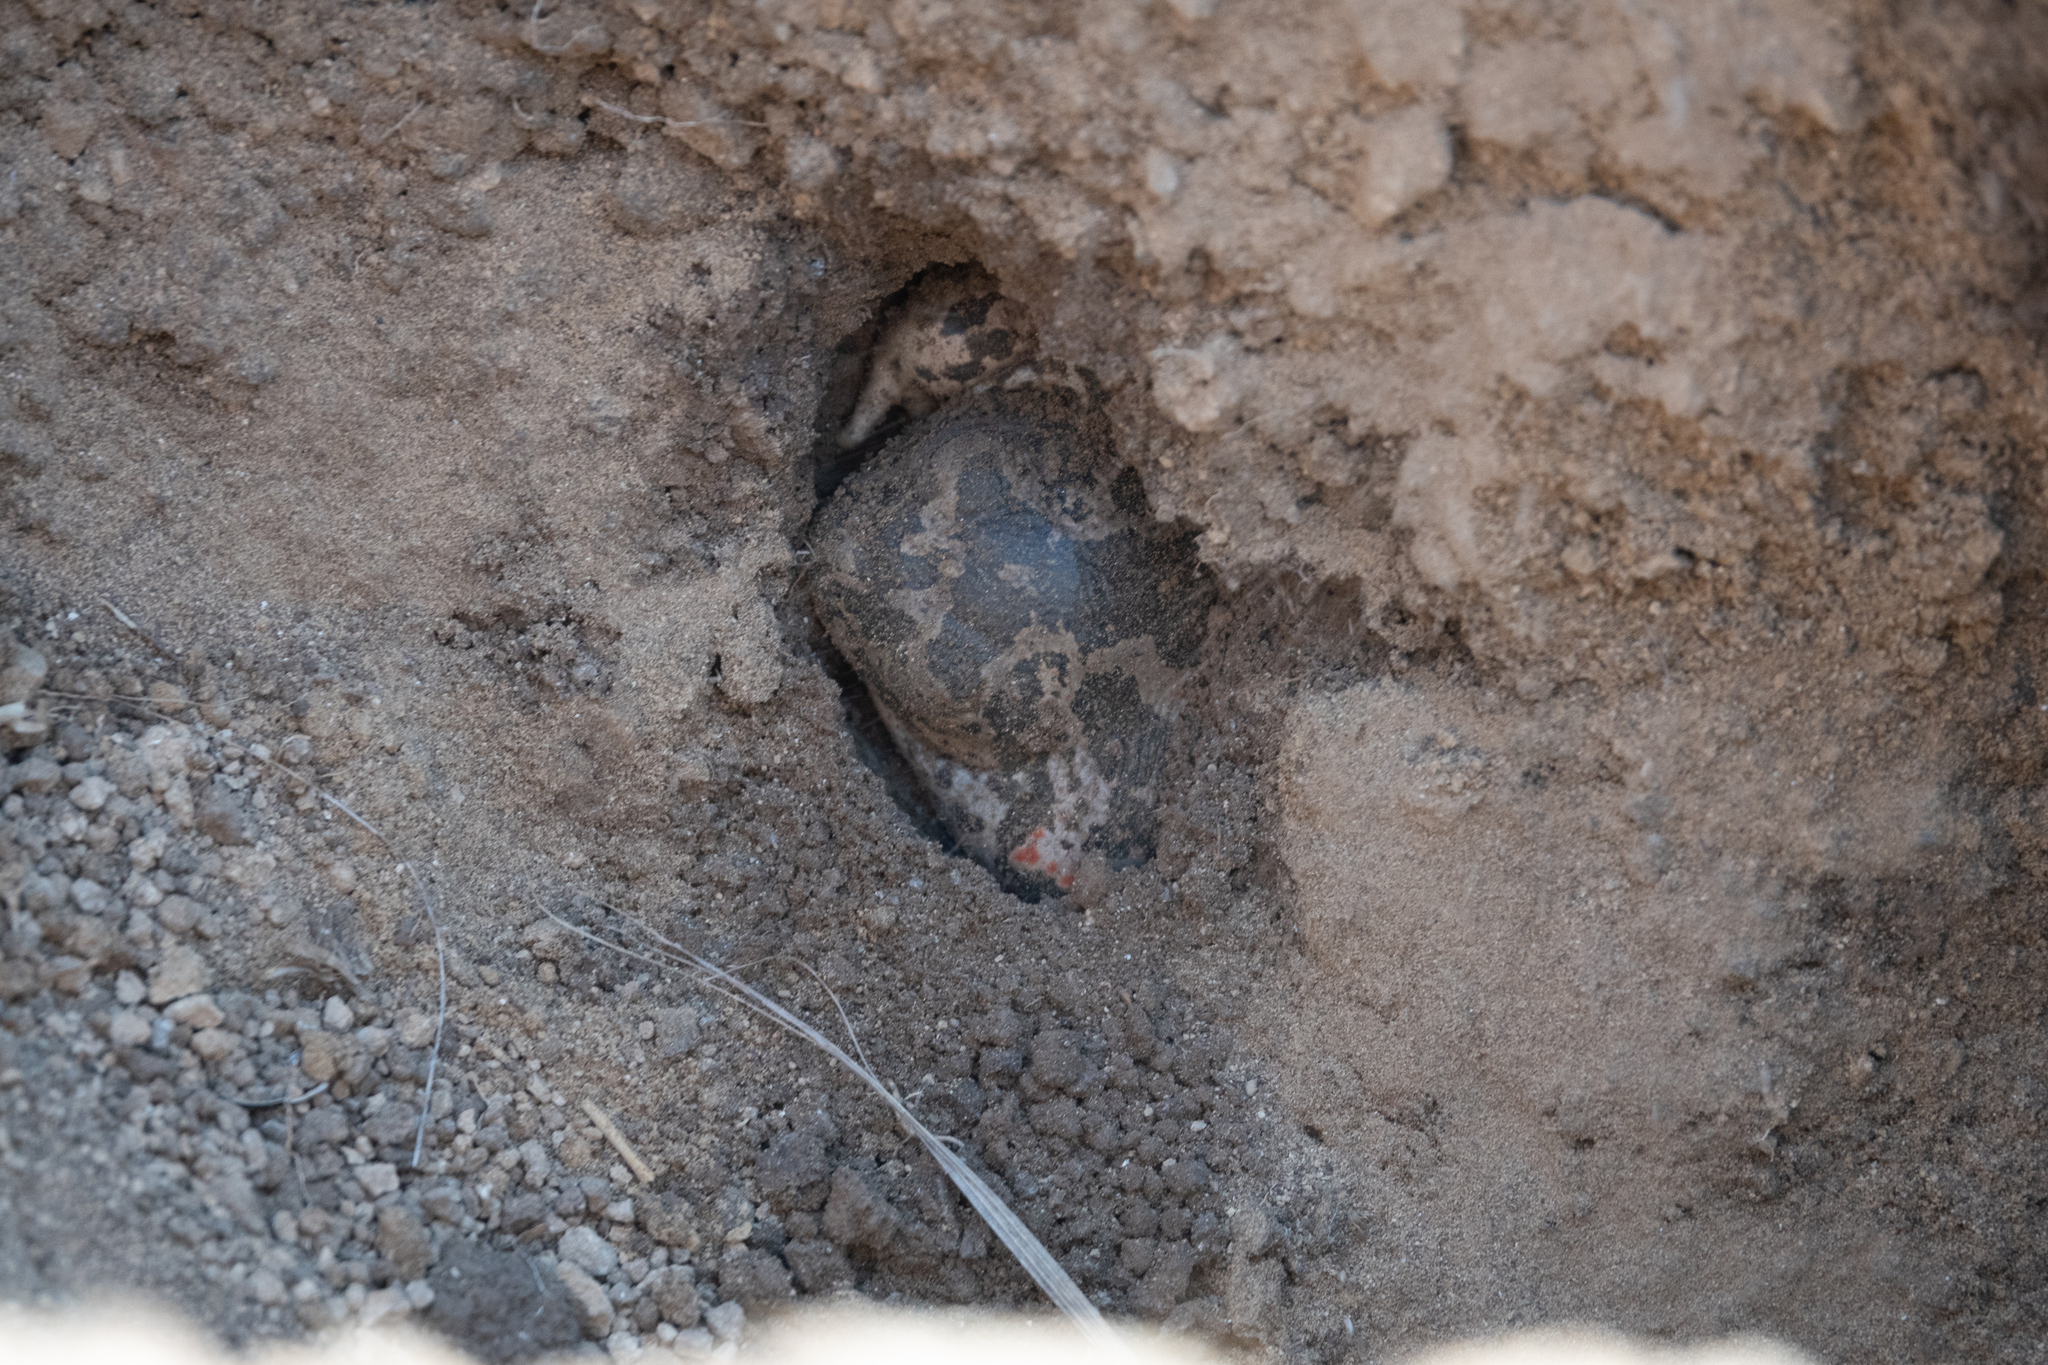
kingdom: Animalia
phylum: Chordata
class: Amphibia
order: Anura
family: Pelobatidae
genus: Pelobates
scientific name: Pelobates balcanicus
